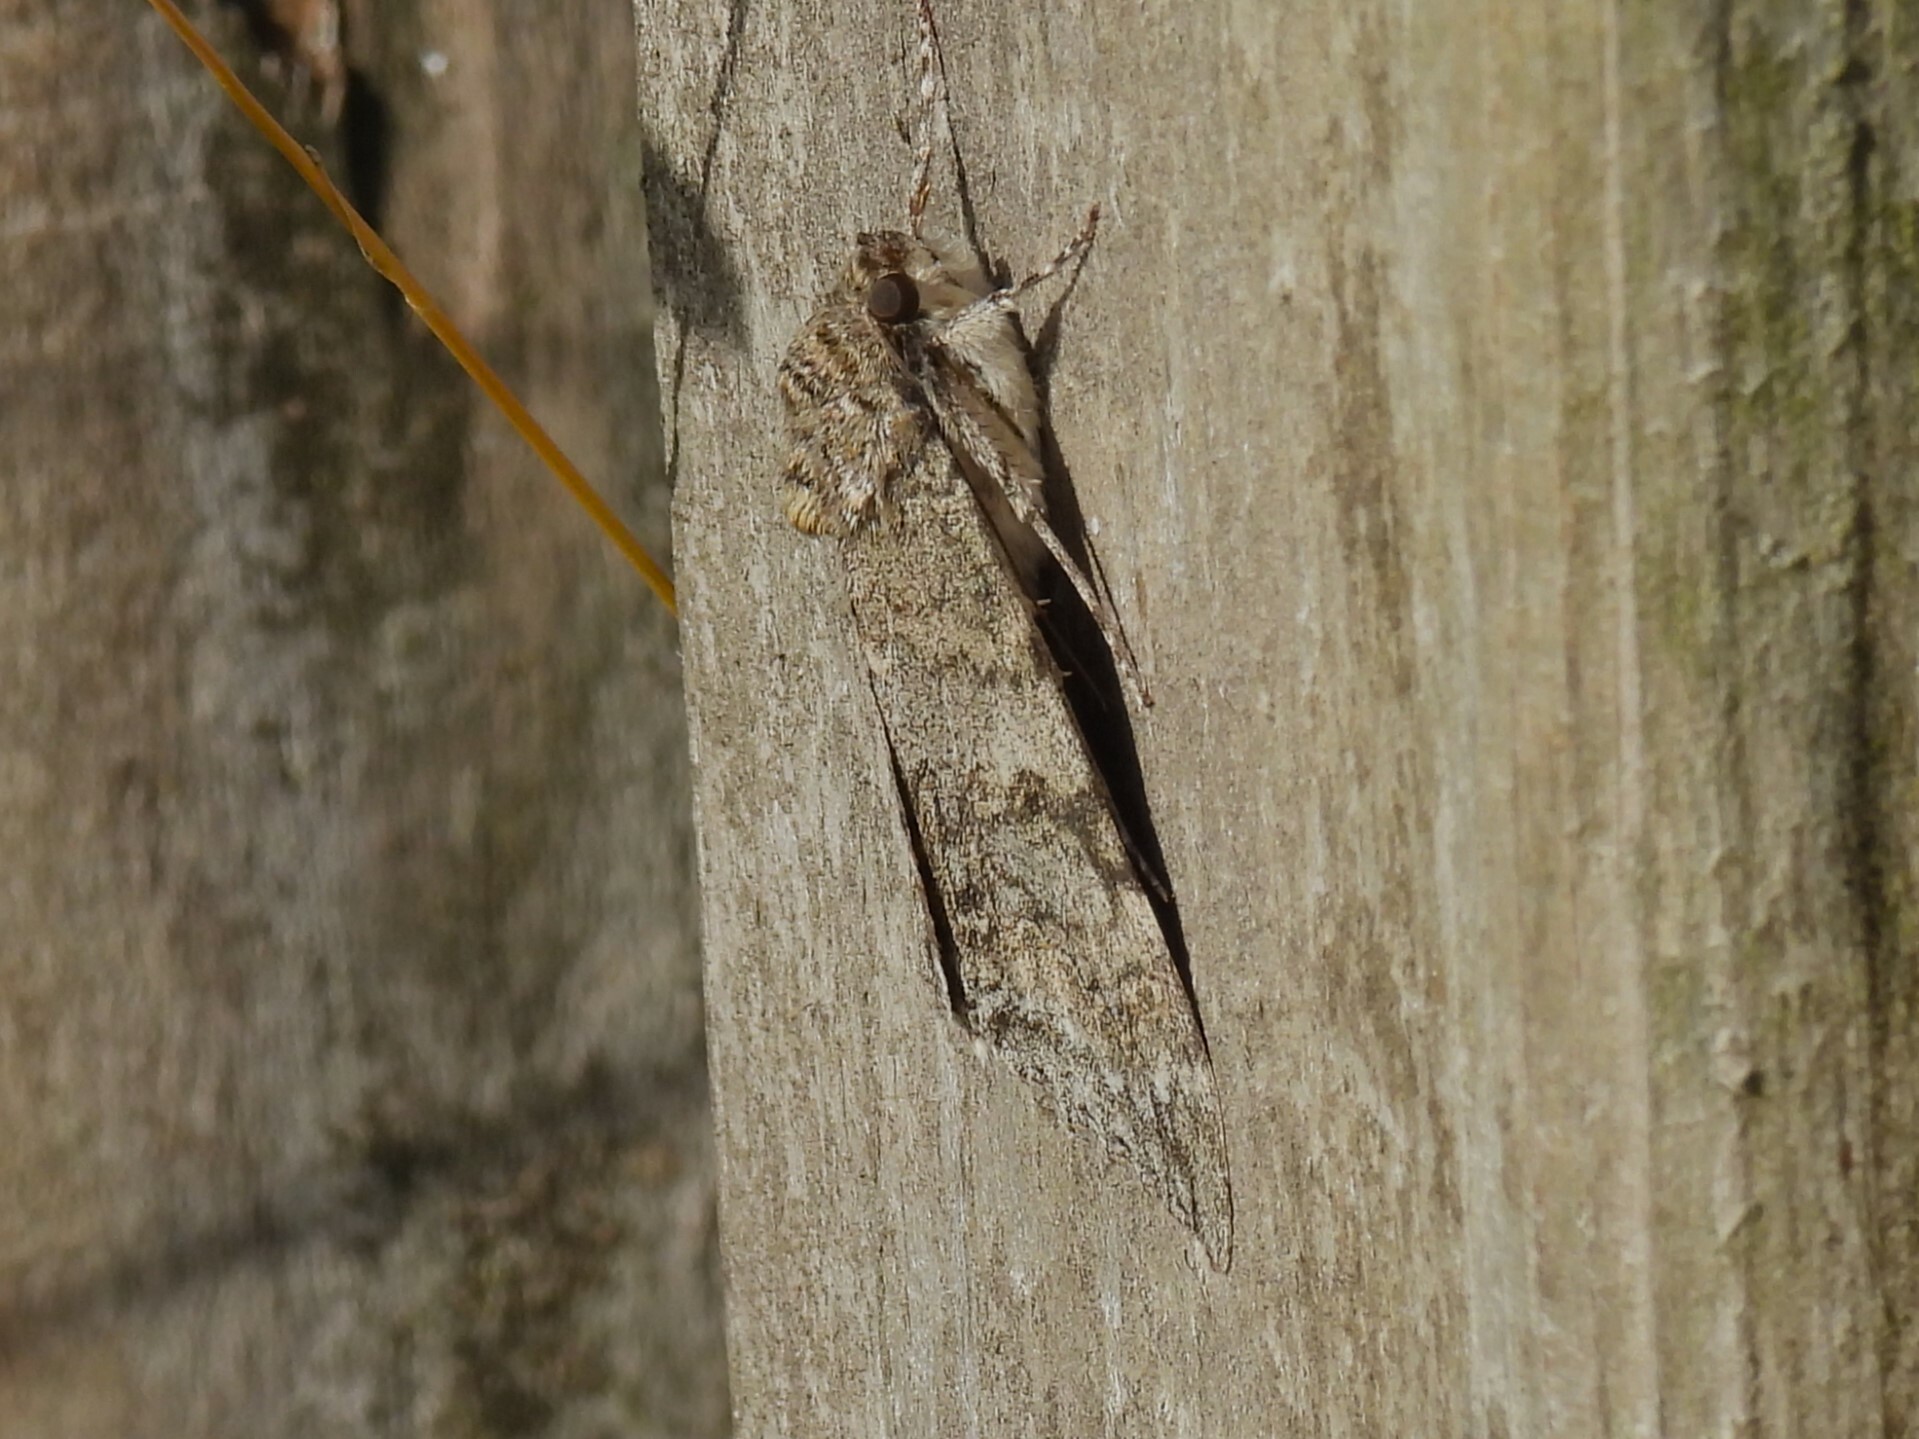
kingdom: Animalia
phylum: Arthropoda
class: Insecta
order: Lepidoptera
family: Erebidae
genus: Catocala
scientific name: Catocala nupta
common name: Red underwing
